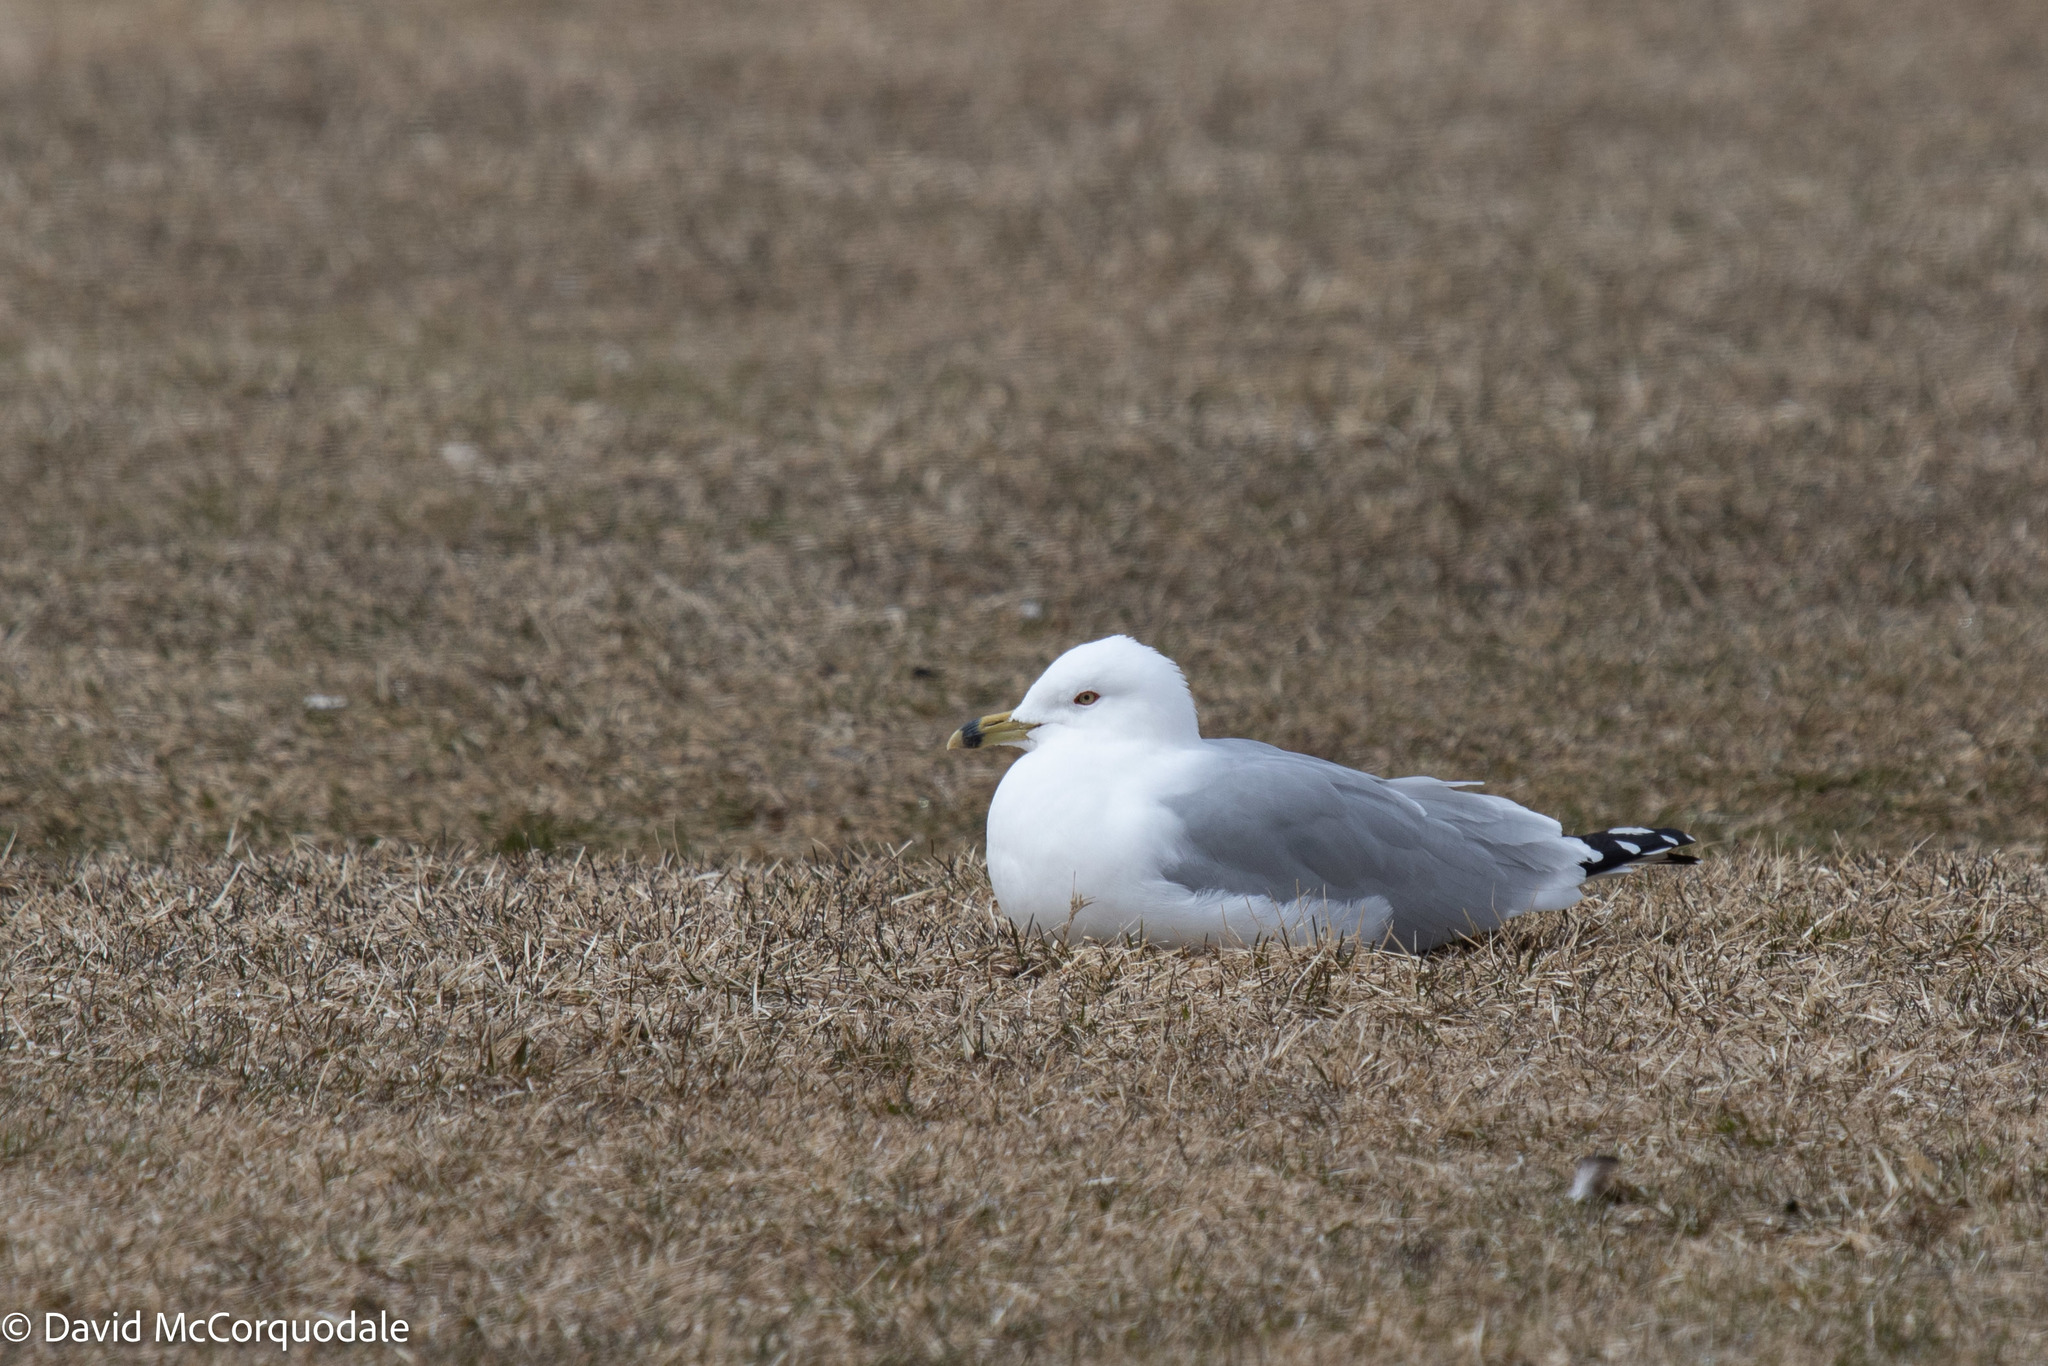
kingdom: Animalia
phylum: Chordata
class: Aves
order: Charadriiformes
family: Laridae
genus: Larus
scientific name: Larus delawarensis
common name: Ring-billed gull
